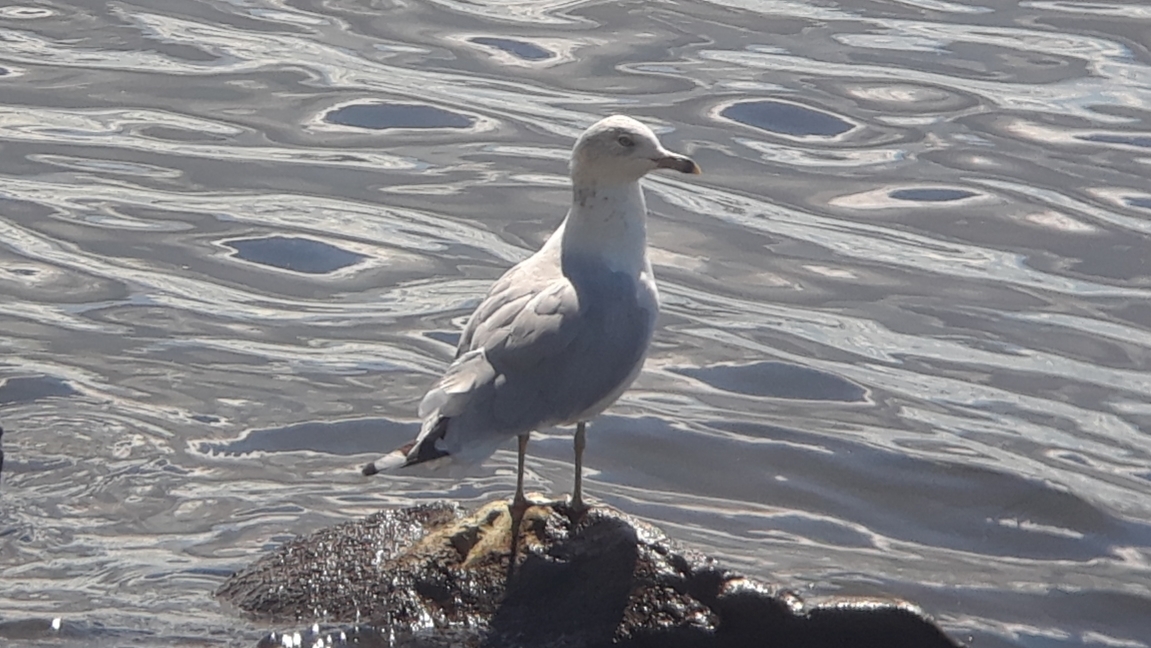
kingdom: Animalia
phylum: Chordata
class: Aves
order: Charadriiformes
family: Laridae
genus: Larus
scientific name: Larus delawarensis
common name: Ring-billed gull
